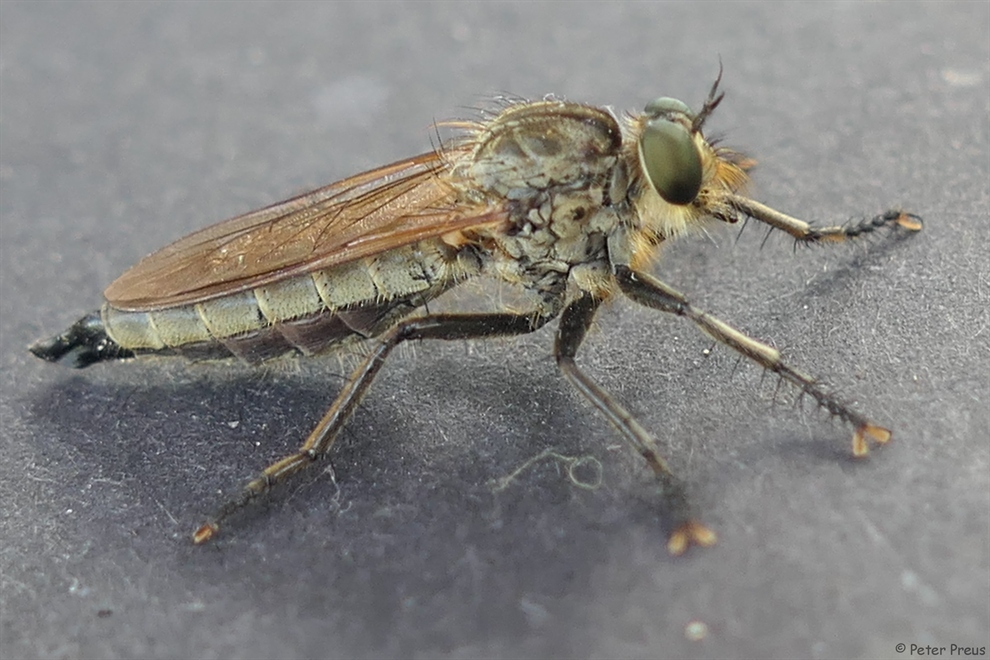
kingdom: Animalia
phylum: Arthropoda
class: Insecta
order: Diptera
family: Asilidae
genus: Eutolmus
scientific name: Eutolmus rufibarbis
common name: Golden-tabbed robberfly
